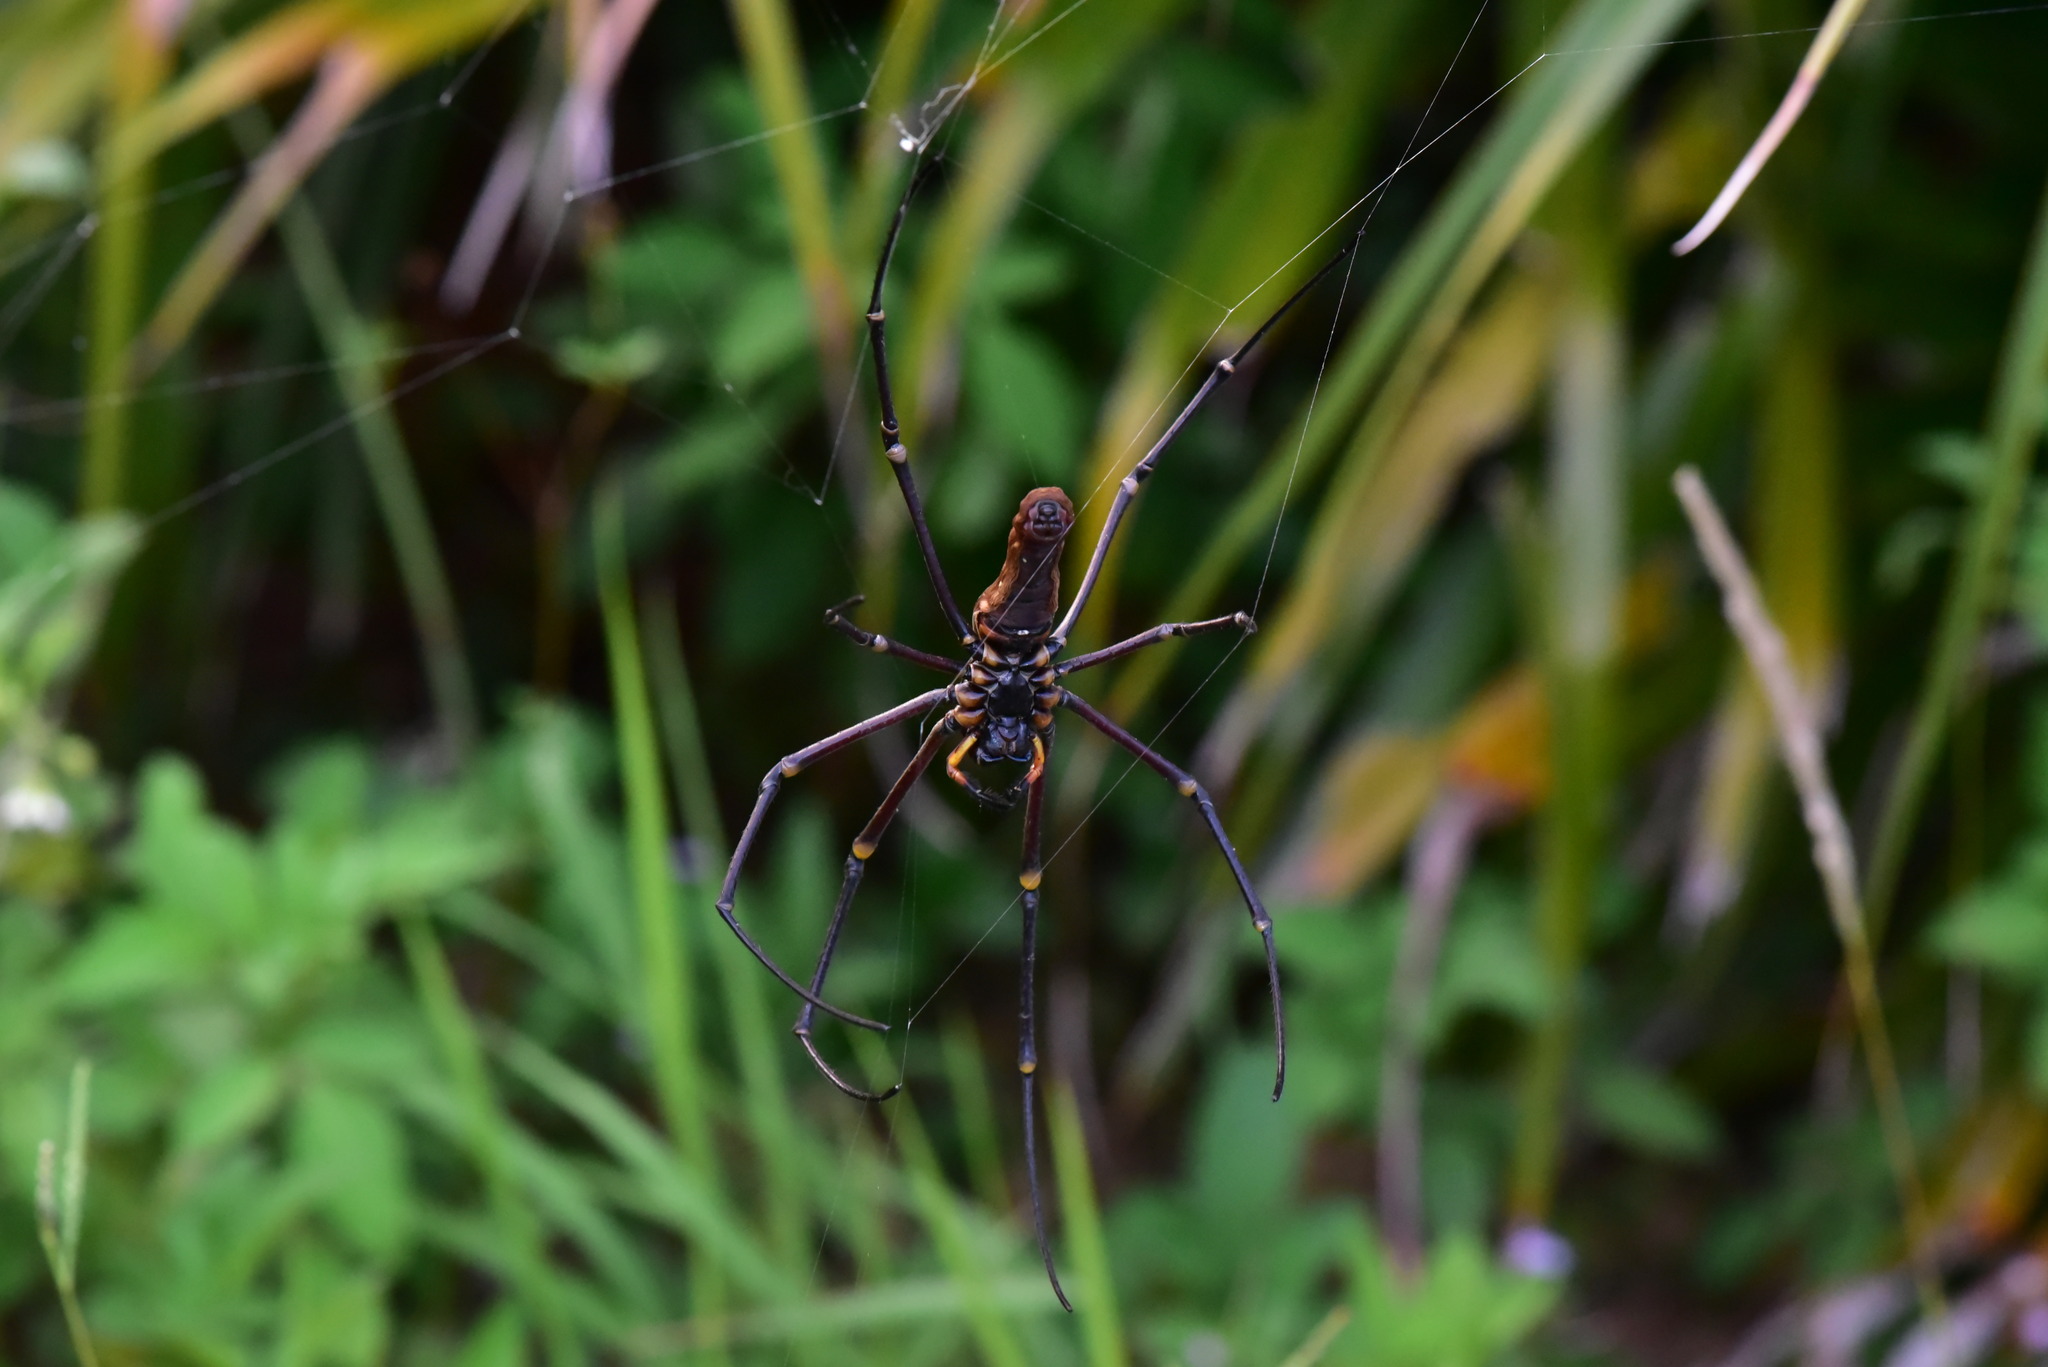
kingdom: Animalia
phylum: Arthropoda
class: Arachnida
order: Araneae
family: Araneidae
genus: Nephila
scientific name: Nephila pilipes
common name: Giant golden orb weaver
